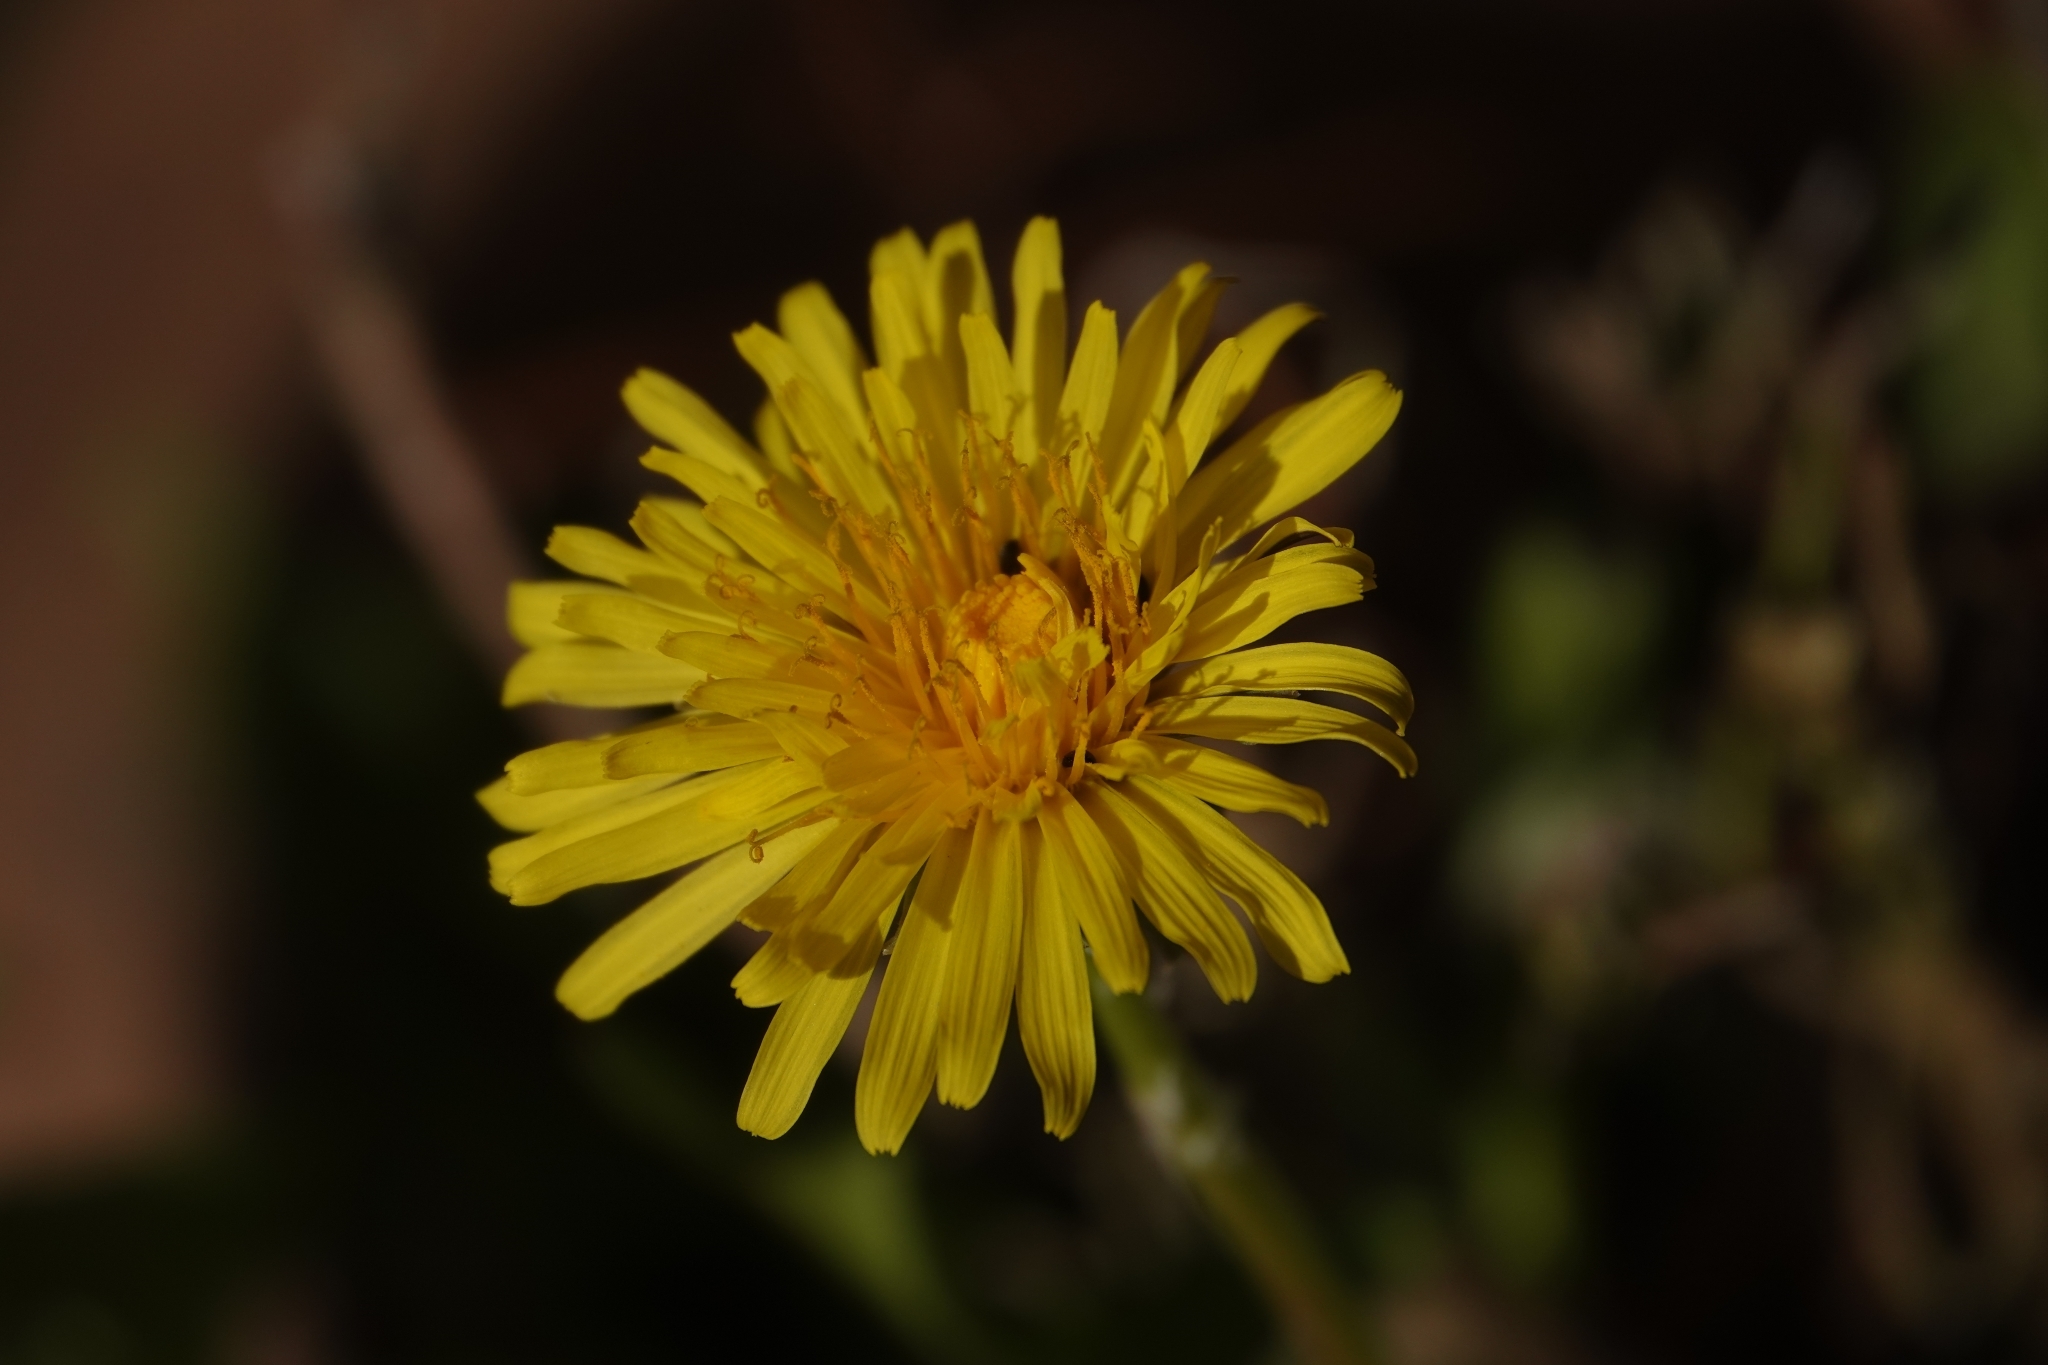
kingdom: Plantae
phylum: Tracheophyta
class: Magnoliopsida
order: Asterales
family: Asteraceae
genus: Taraxacum
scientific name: Taraxacum officinale
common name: Common dandelion
